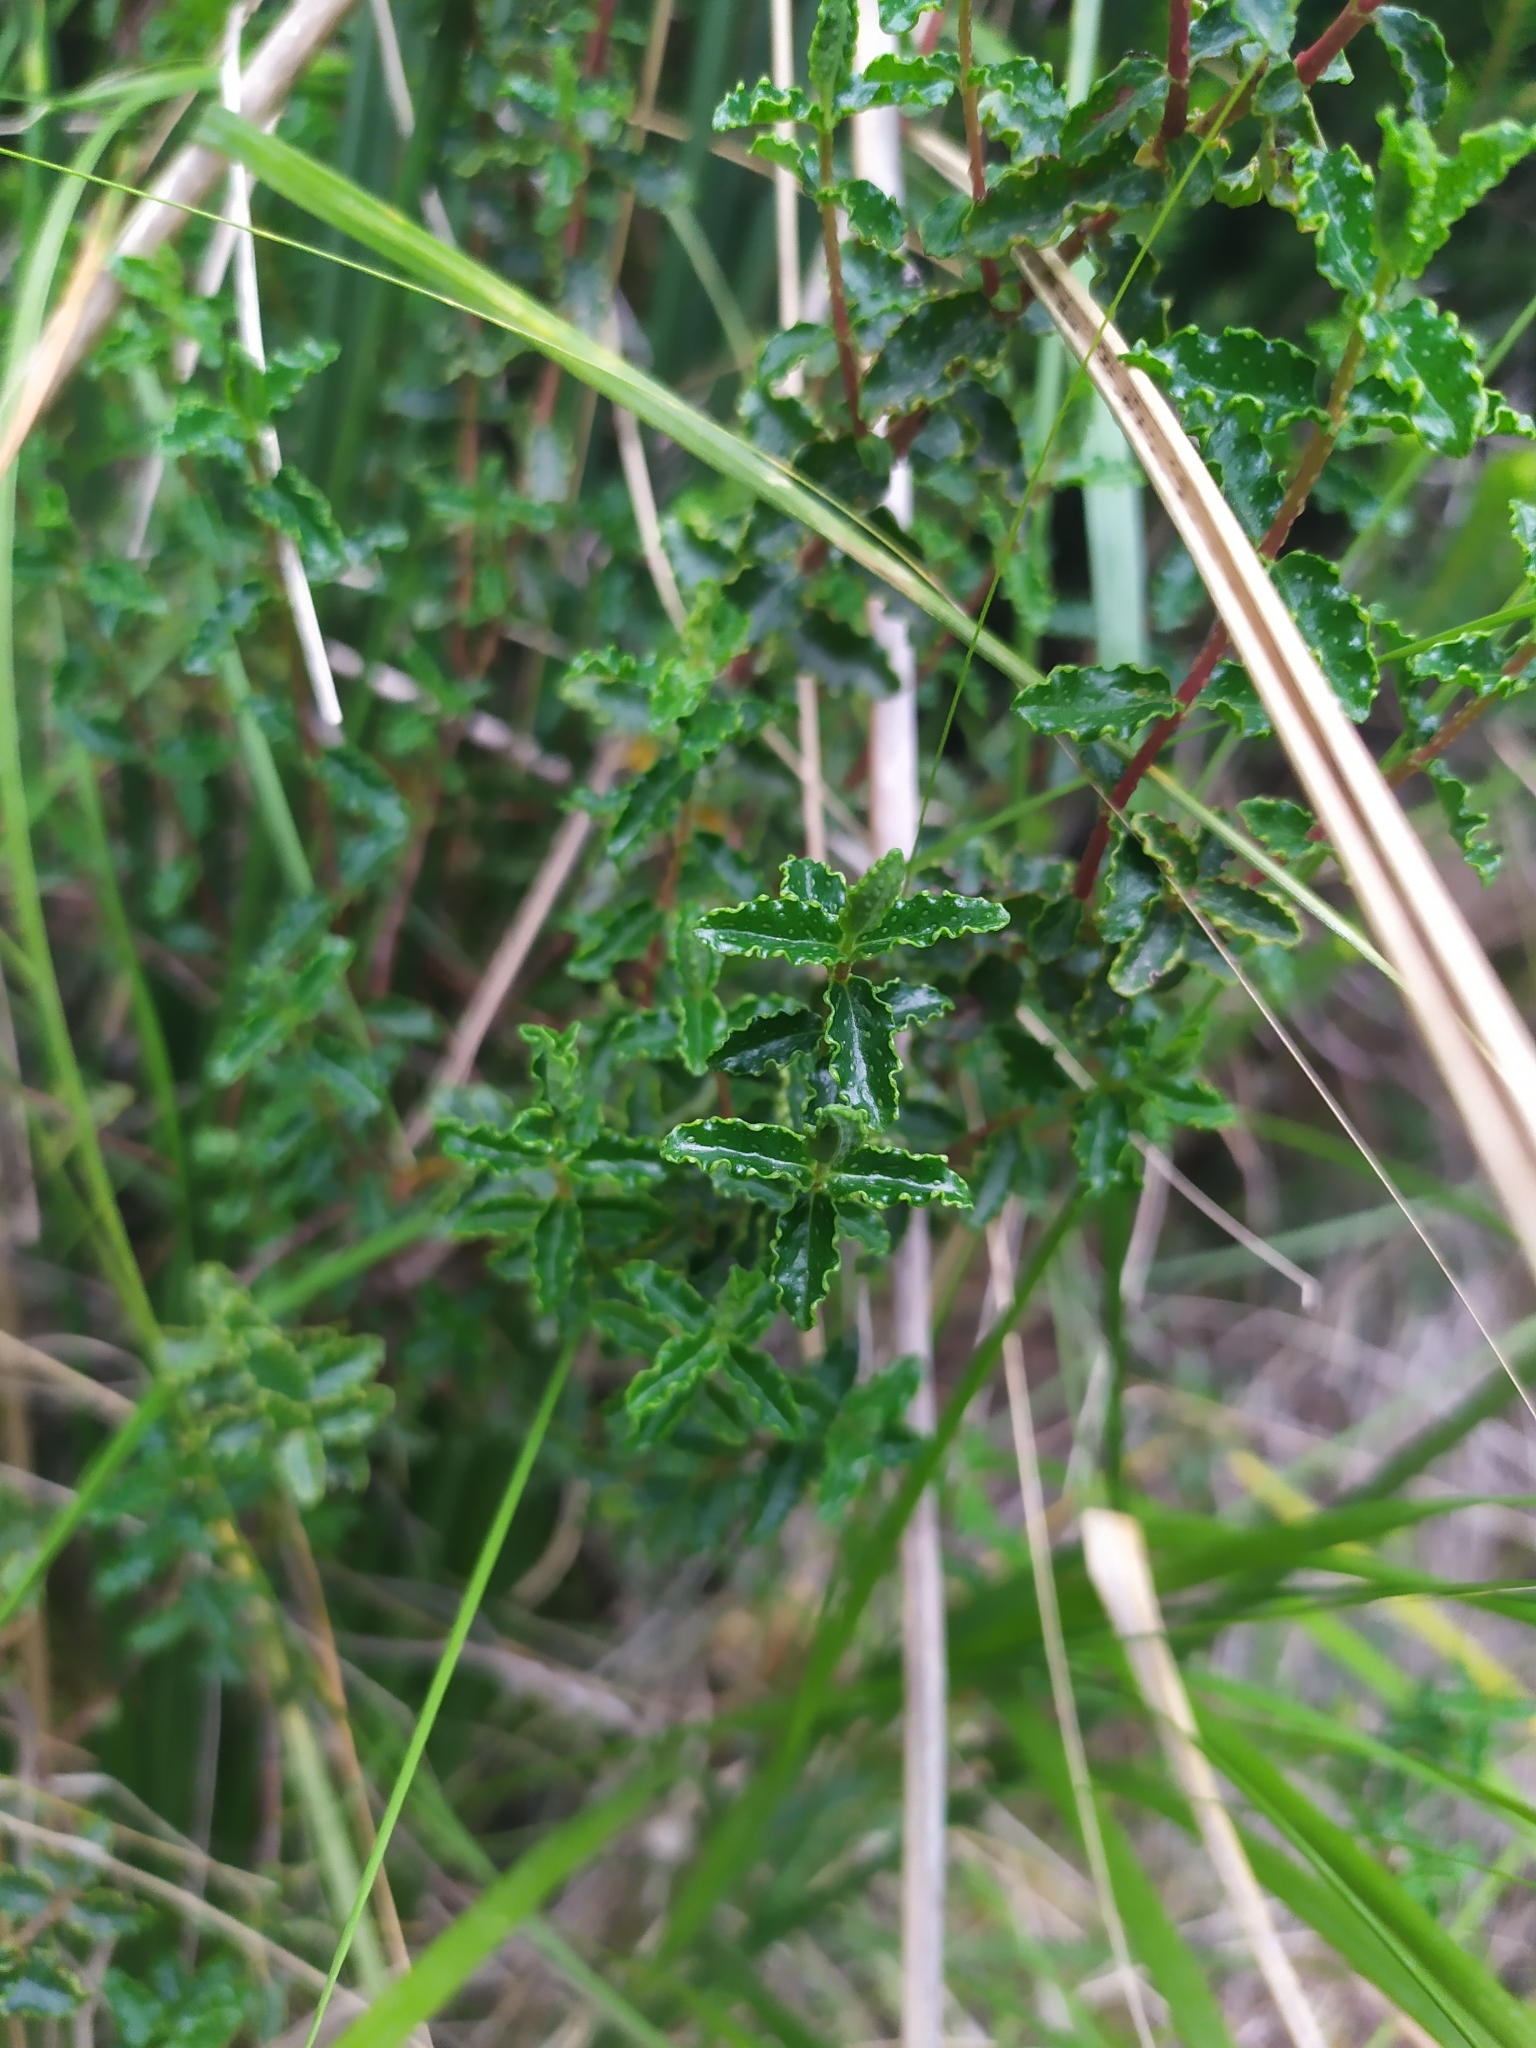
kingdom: Plantae
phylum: Tracheophyta
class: Magnoliopsida
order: Malpighiales
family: Hypericaceae
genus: Hypericum
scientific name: Hypericum balearicum
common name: Majorca st john's wort
